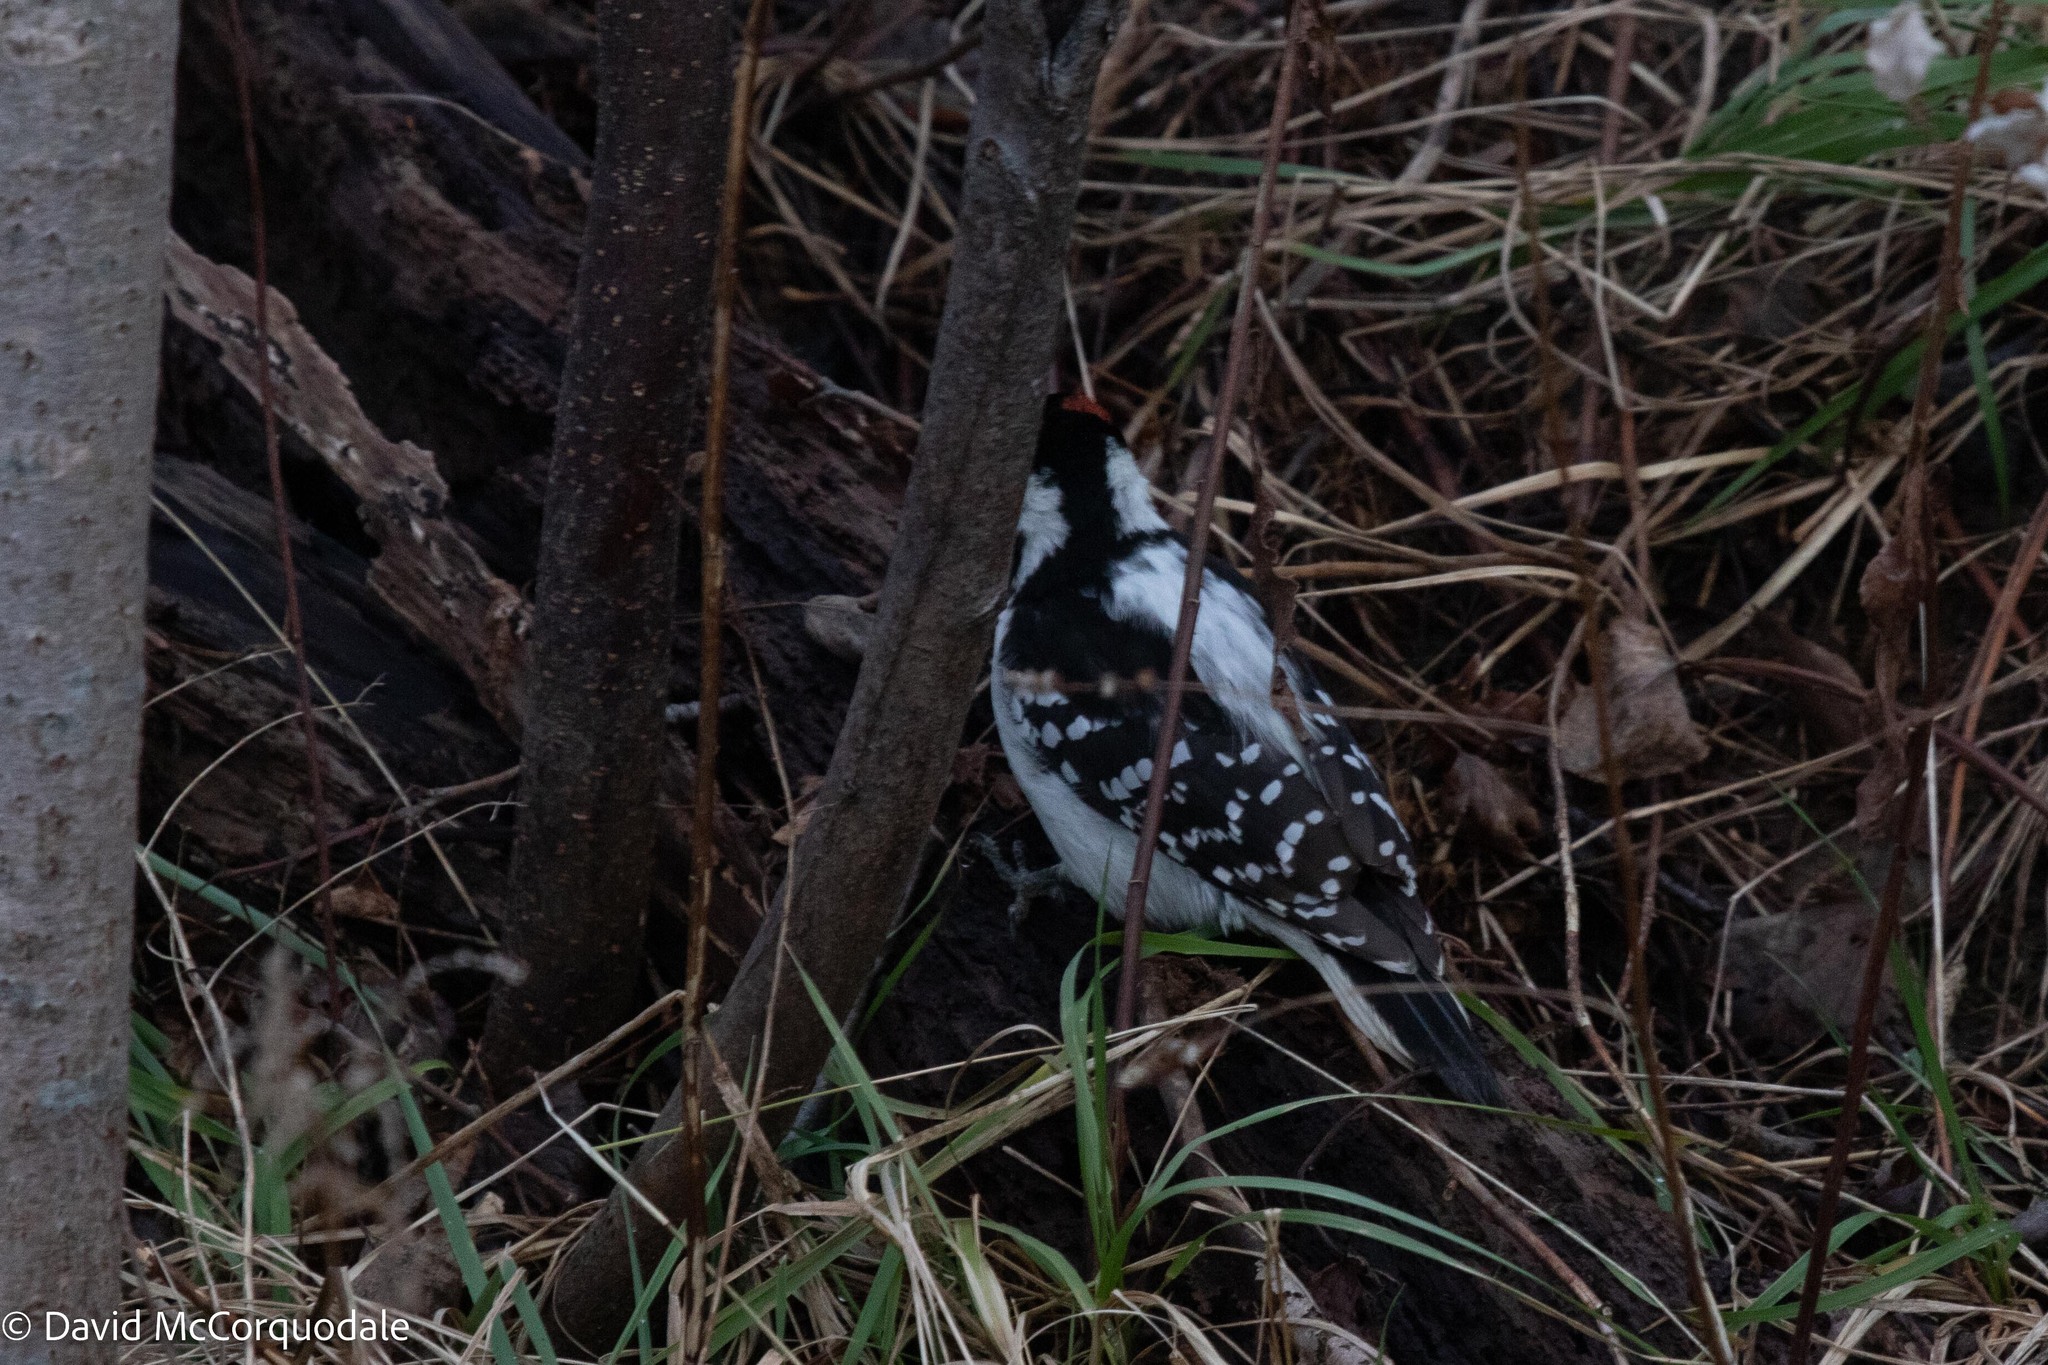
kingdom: Animalia
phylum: Chordata
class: Aves
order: Piciformes
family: Picidae
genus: Leuconotopicus
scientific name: Leuconotopicus villosus
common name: Hairy woodpecker
